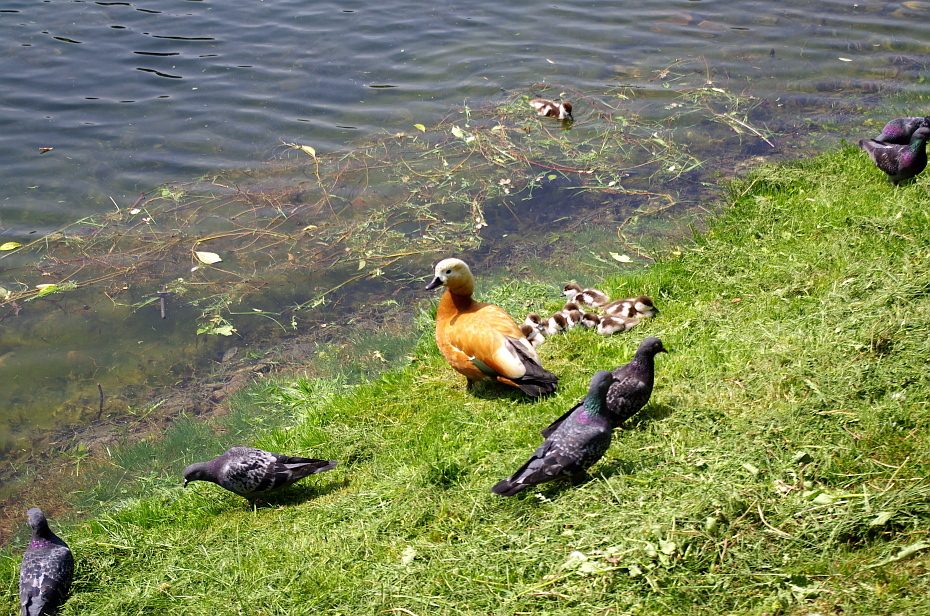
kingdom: Animalia
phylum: Chordata
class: Aves
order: Anseriformes
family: Anatidae
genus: Tadorna
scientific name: Tadorna ferruginea
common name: Ruddy shelduck
